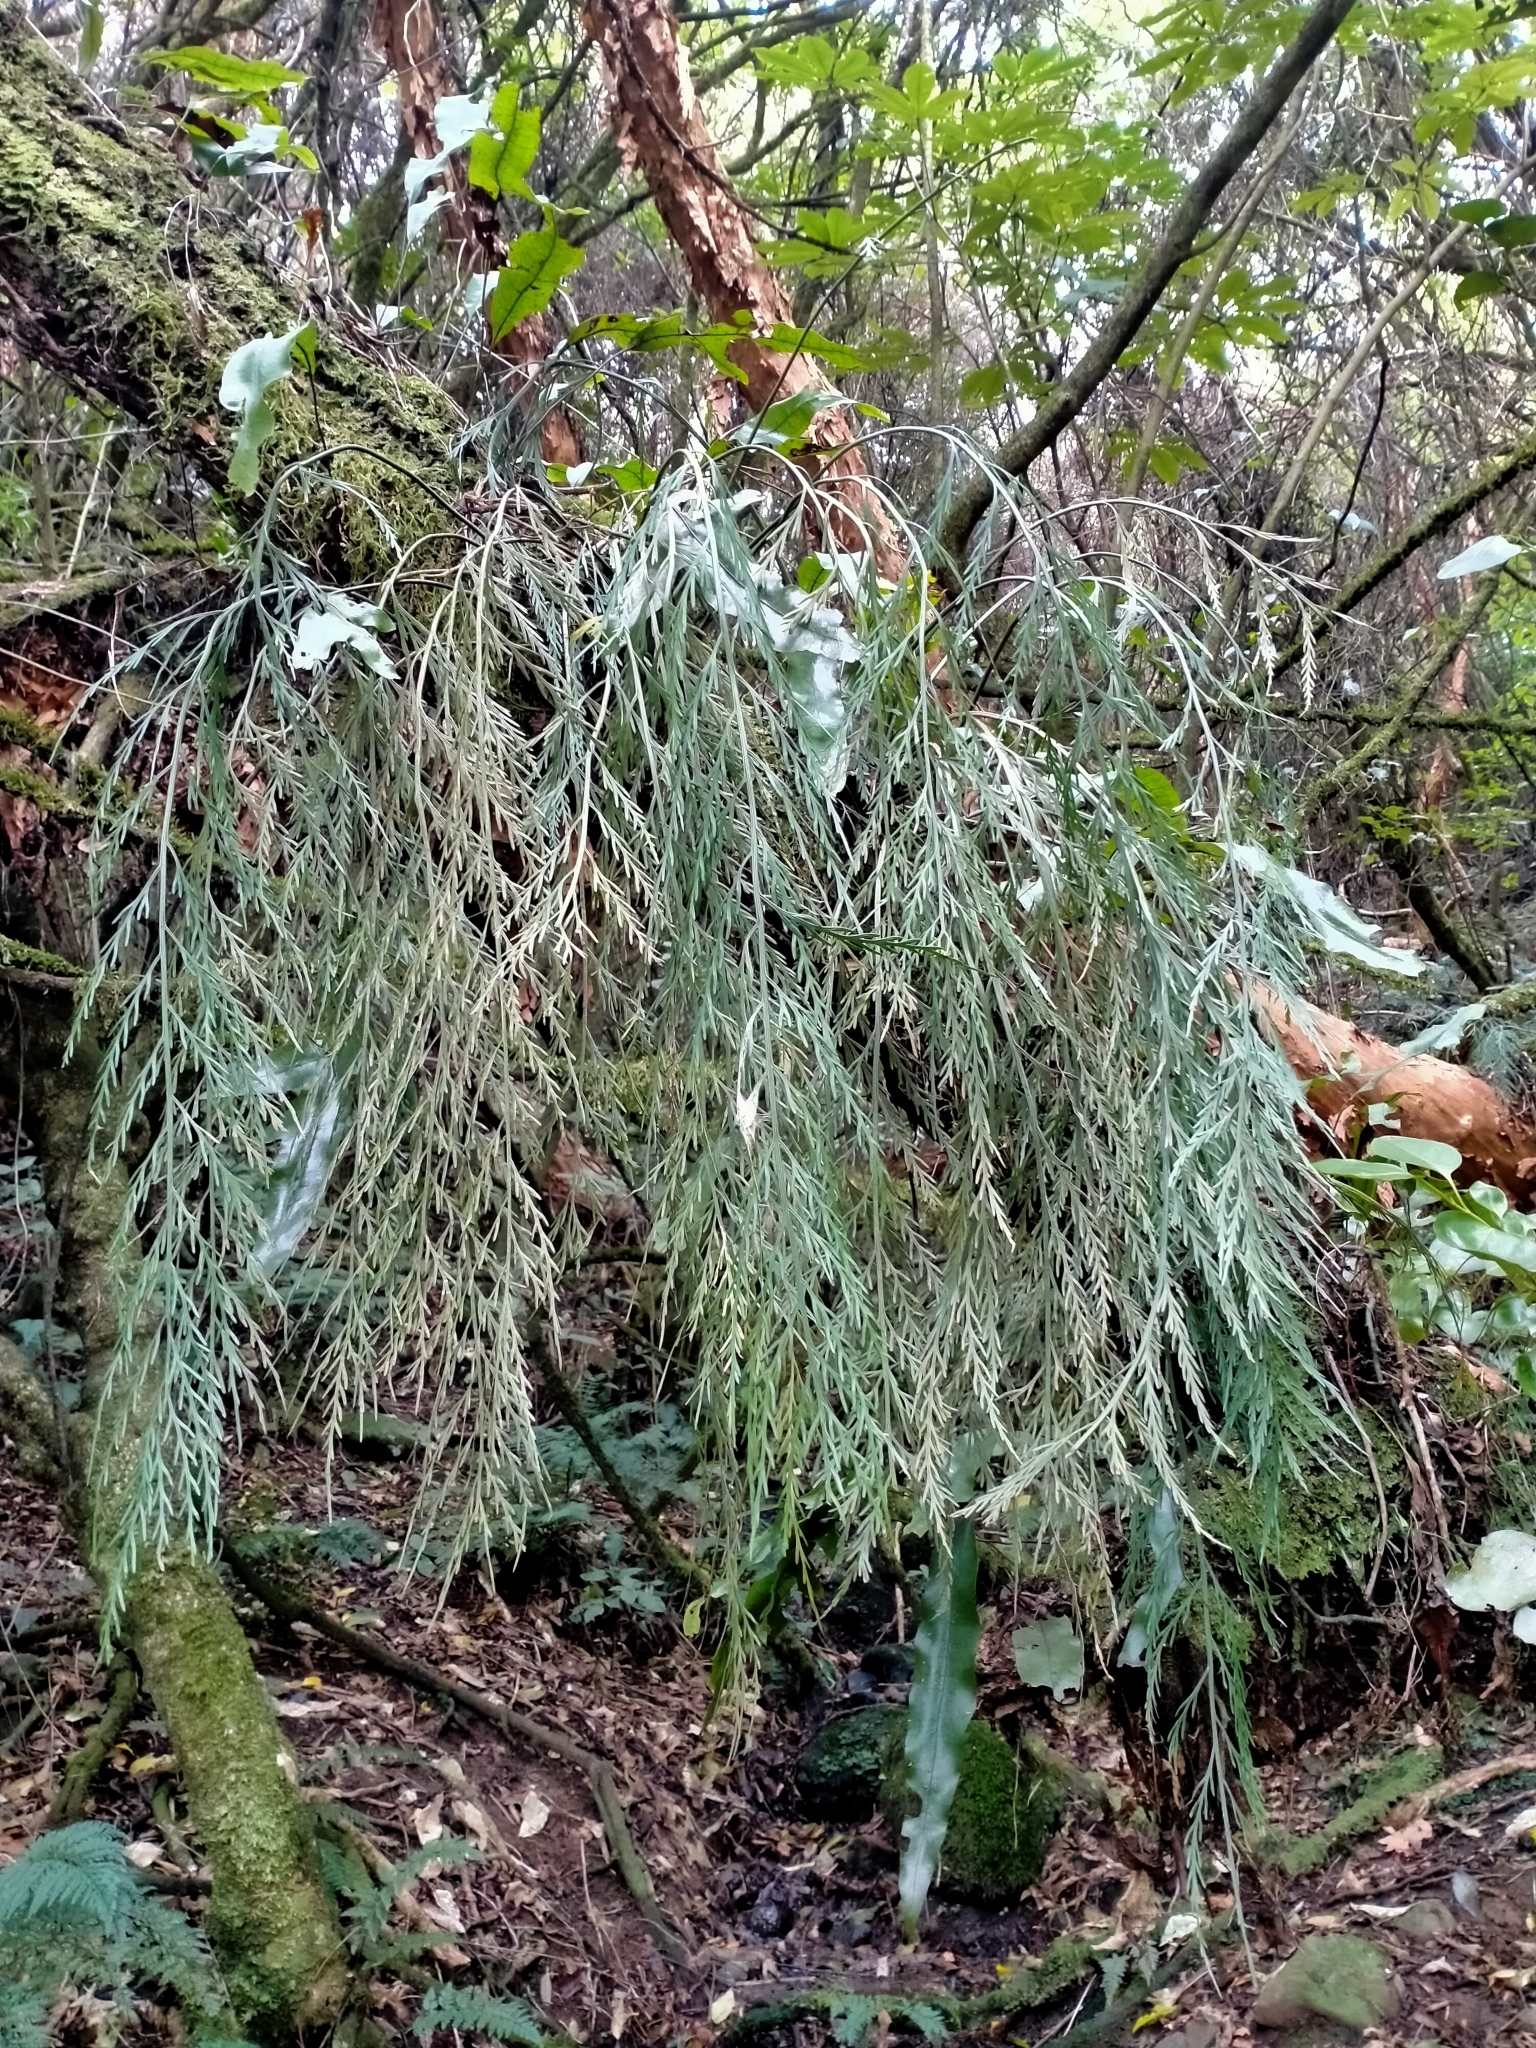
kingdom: Plantae
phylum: Tracheophyta
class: Polypodiopsida
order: Polypodiales
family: Aspleniaceae
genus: Asplenium
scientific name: Asplenium flaccidum
